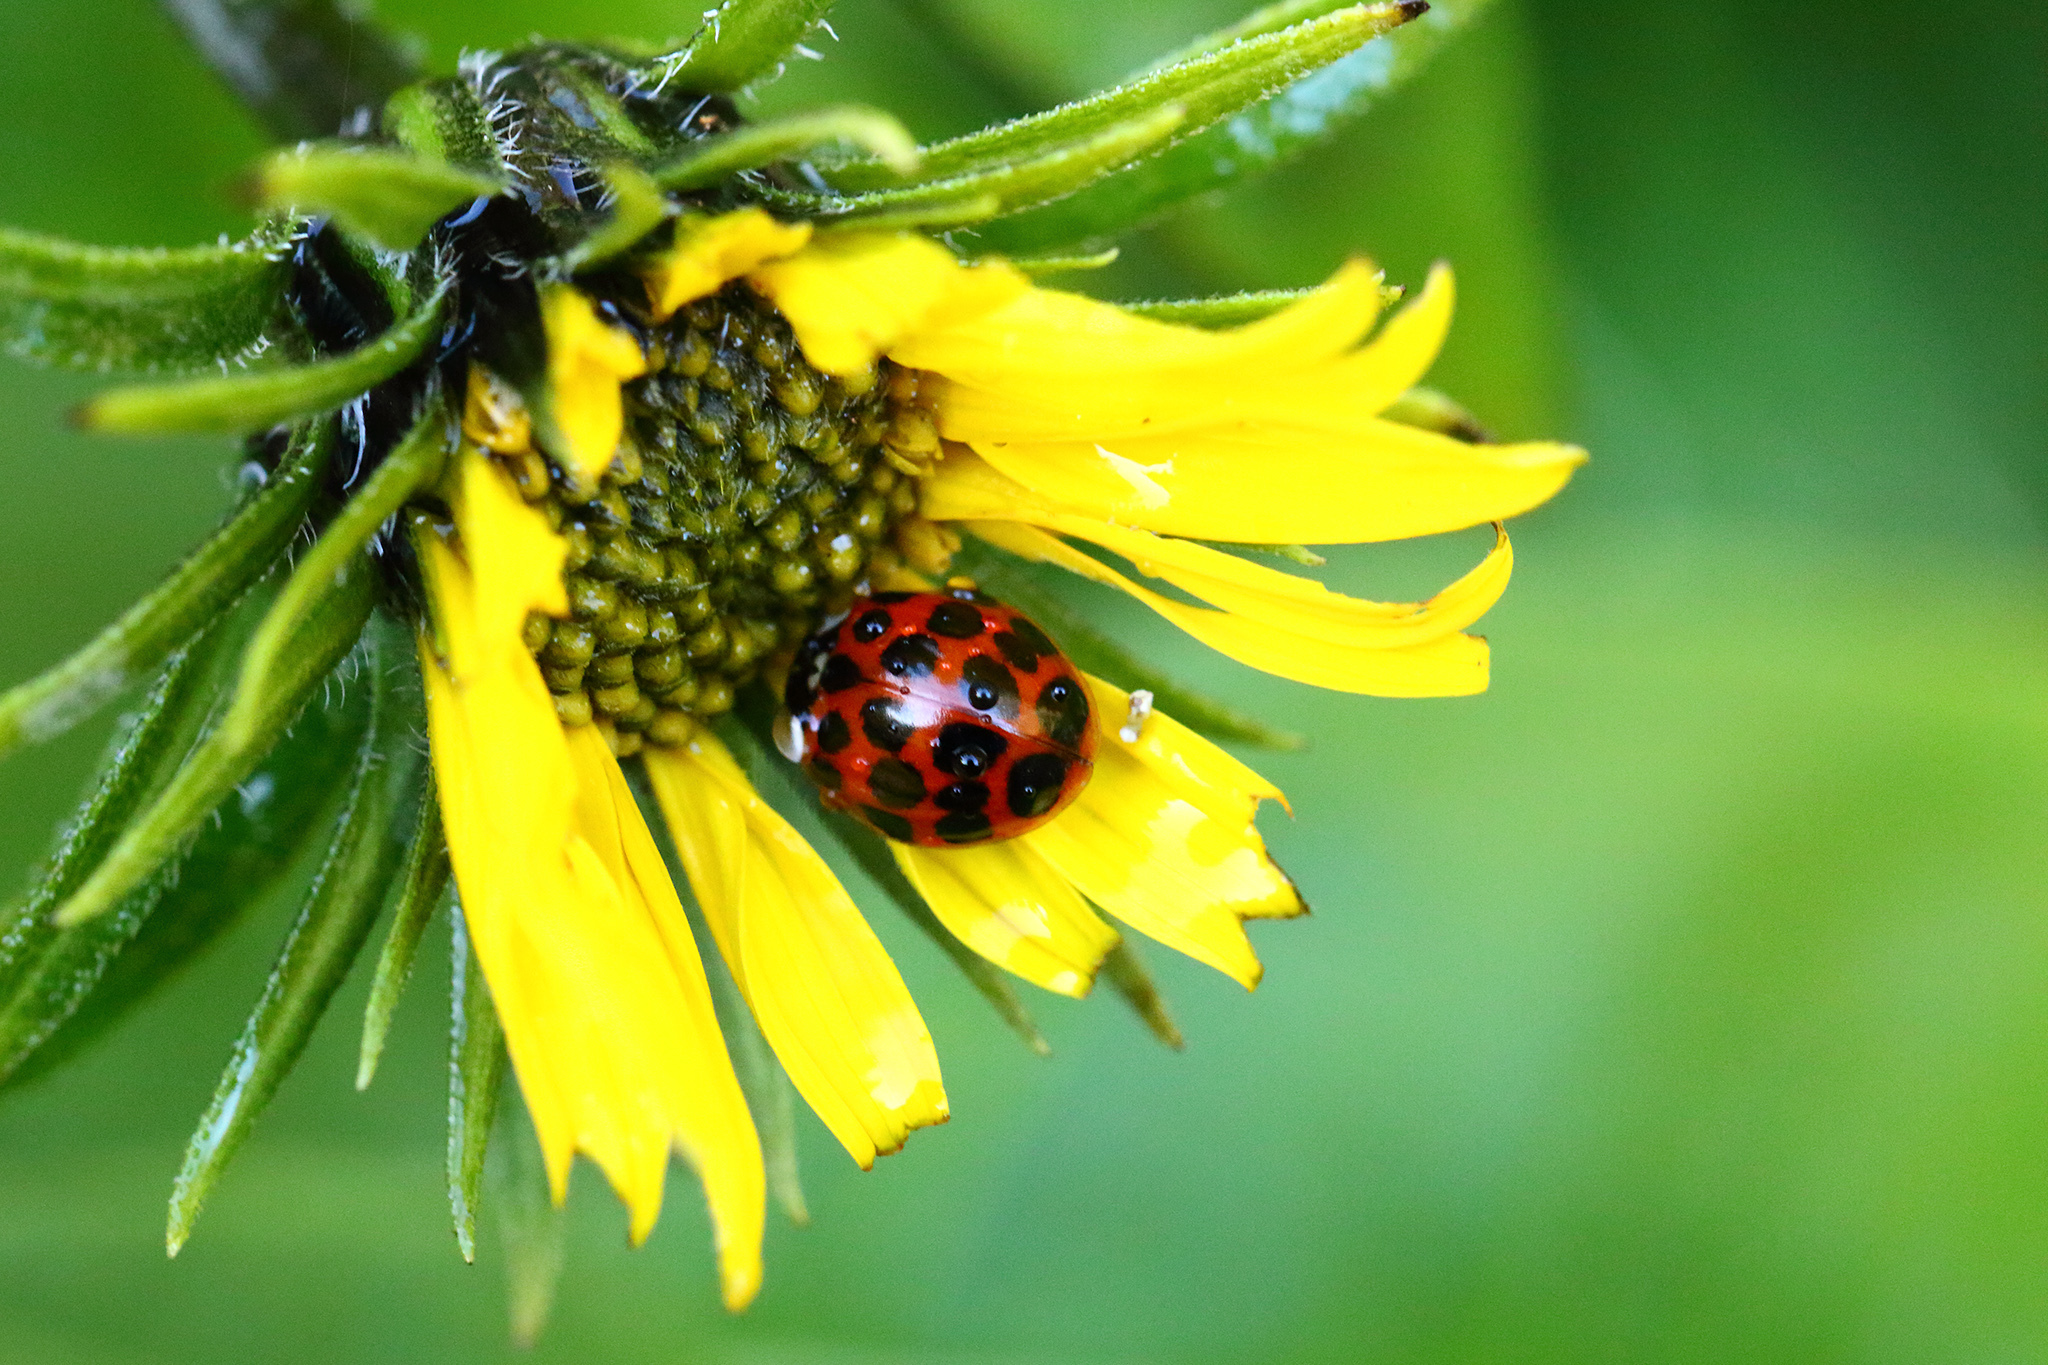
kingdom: Animalia
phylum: Arthropoda
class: Insecta
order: Coleoptera
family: Coccinellidae
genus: Harmonia
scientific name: Harmonia axyridis
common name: Harlequin ladybird
